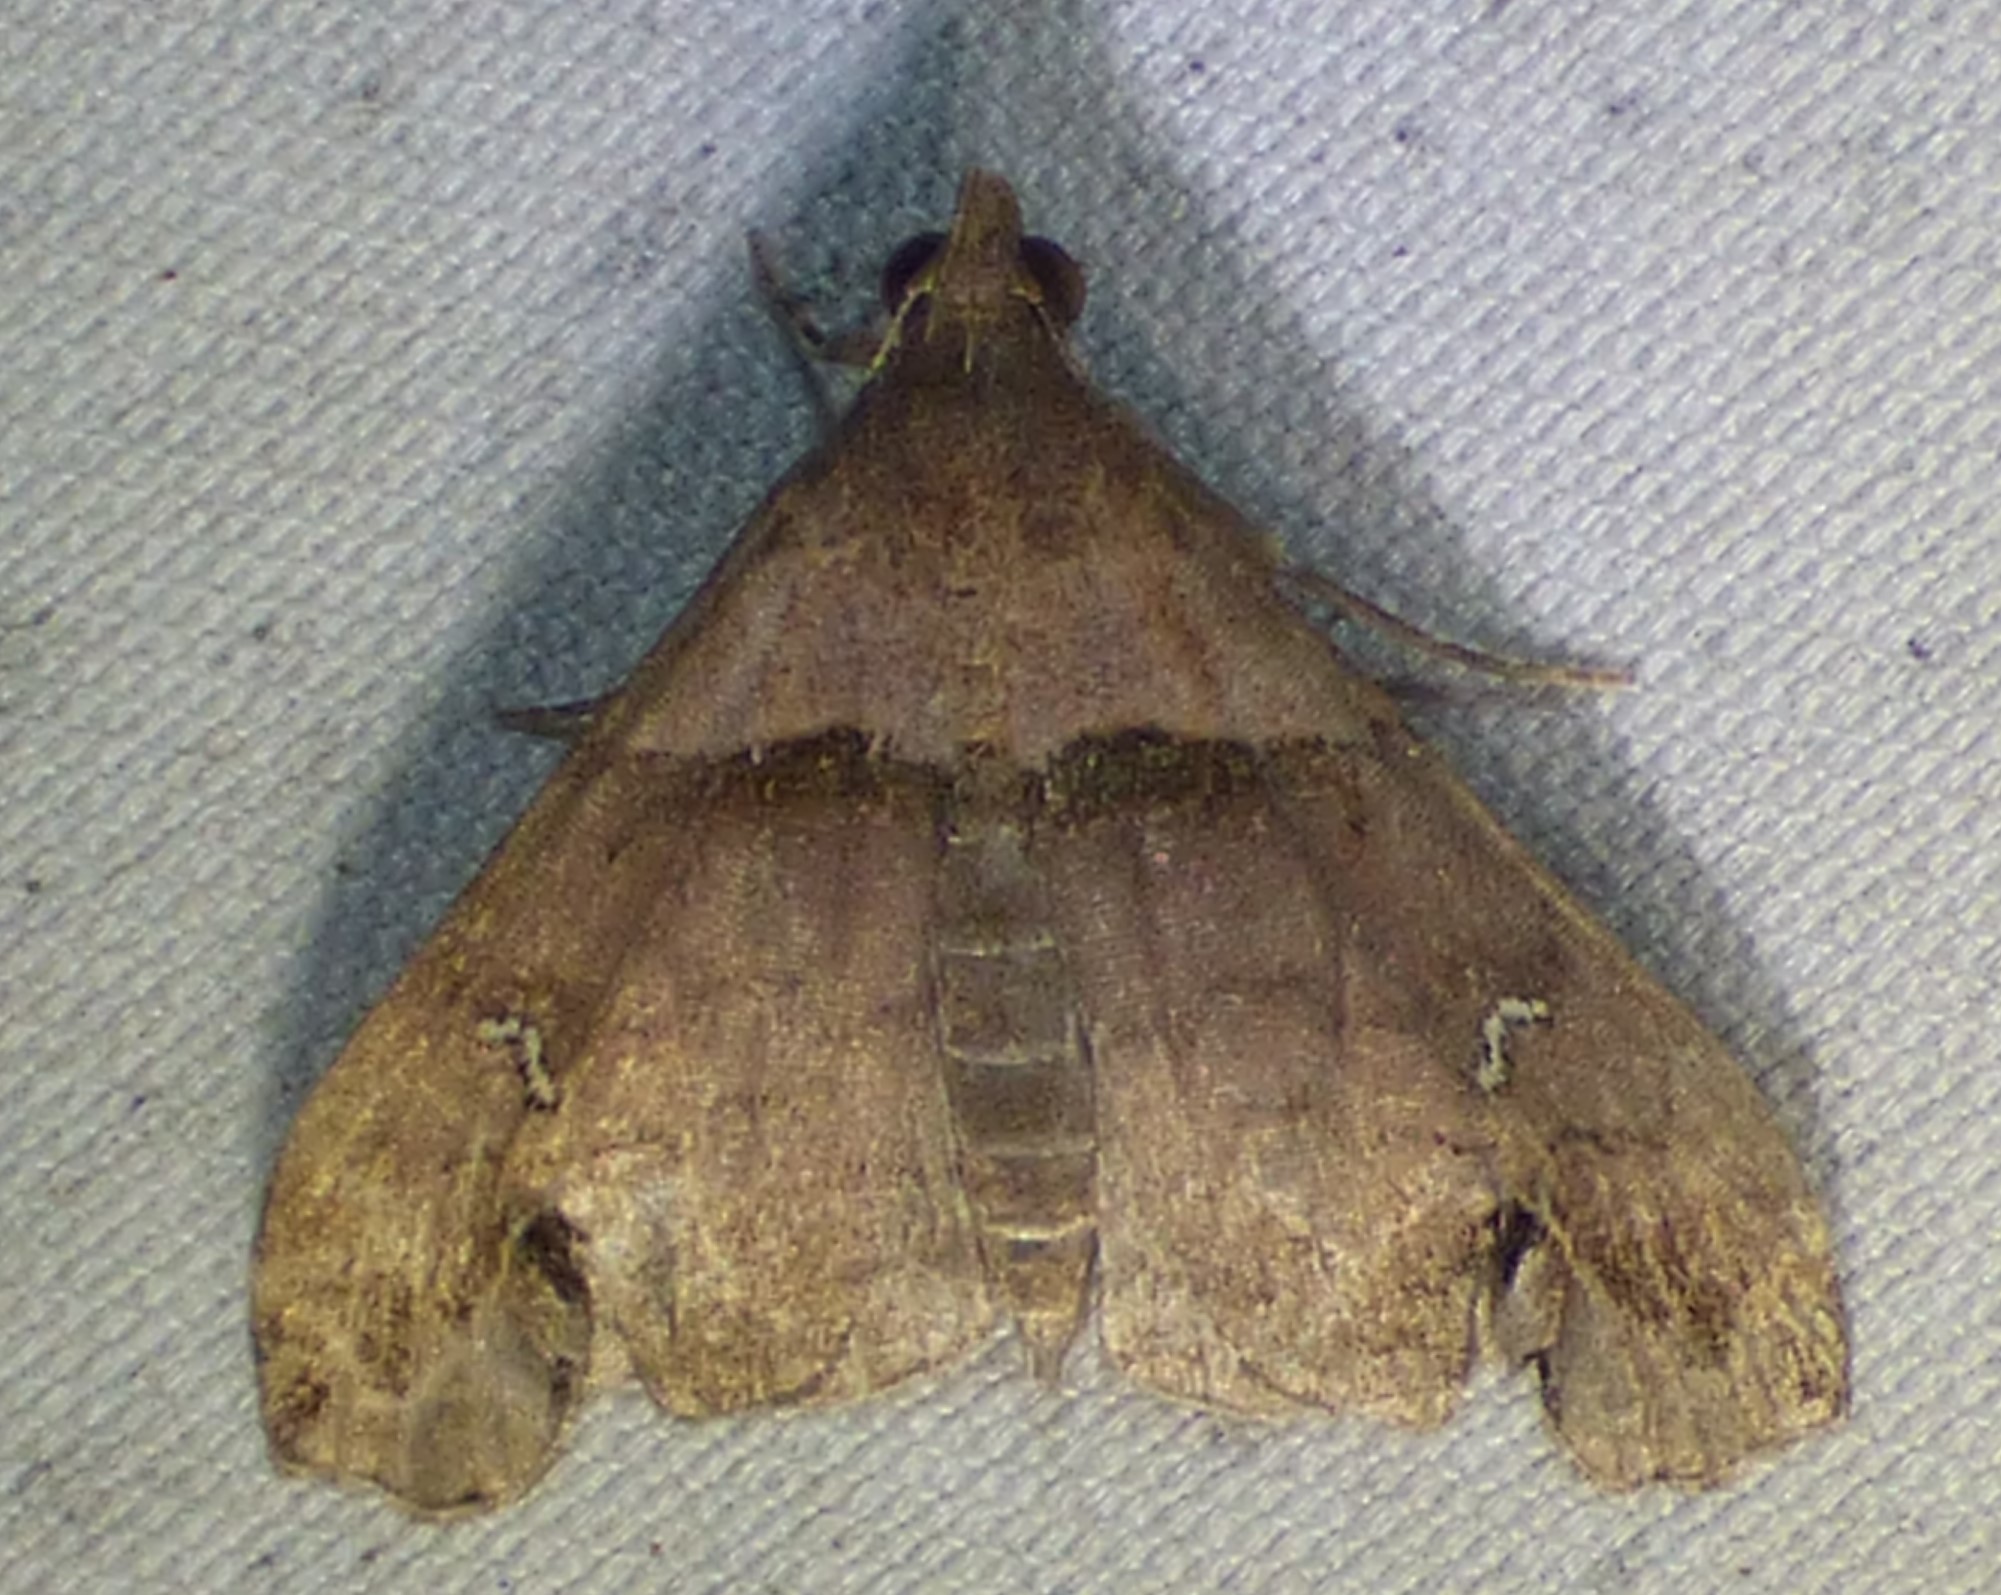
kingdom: Animalia
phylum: Arthropoda
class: Insecta
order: Lepidoptera
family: Erebidae
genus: Lascoria
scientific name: Lascoria ambigualis
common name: Ambiguous moth
